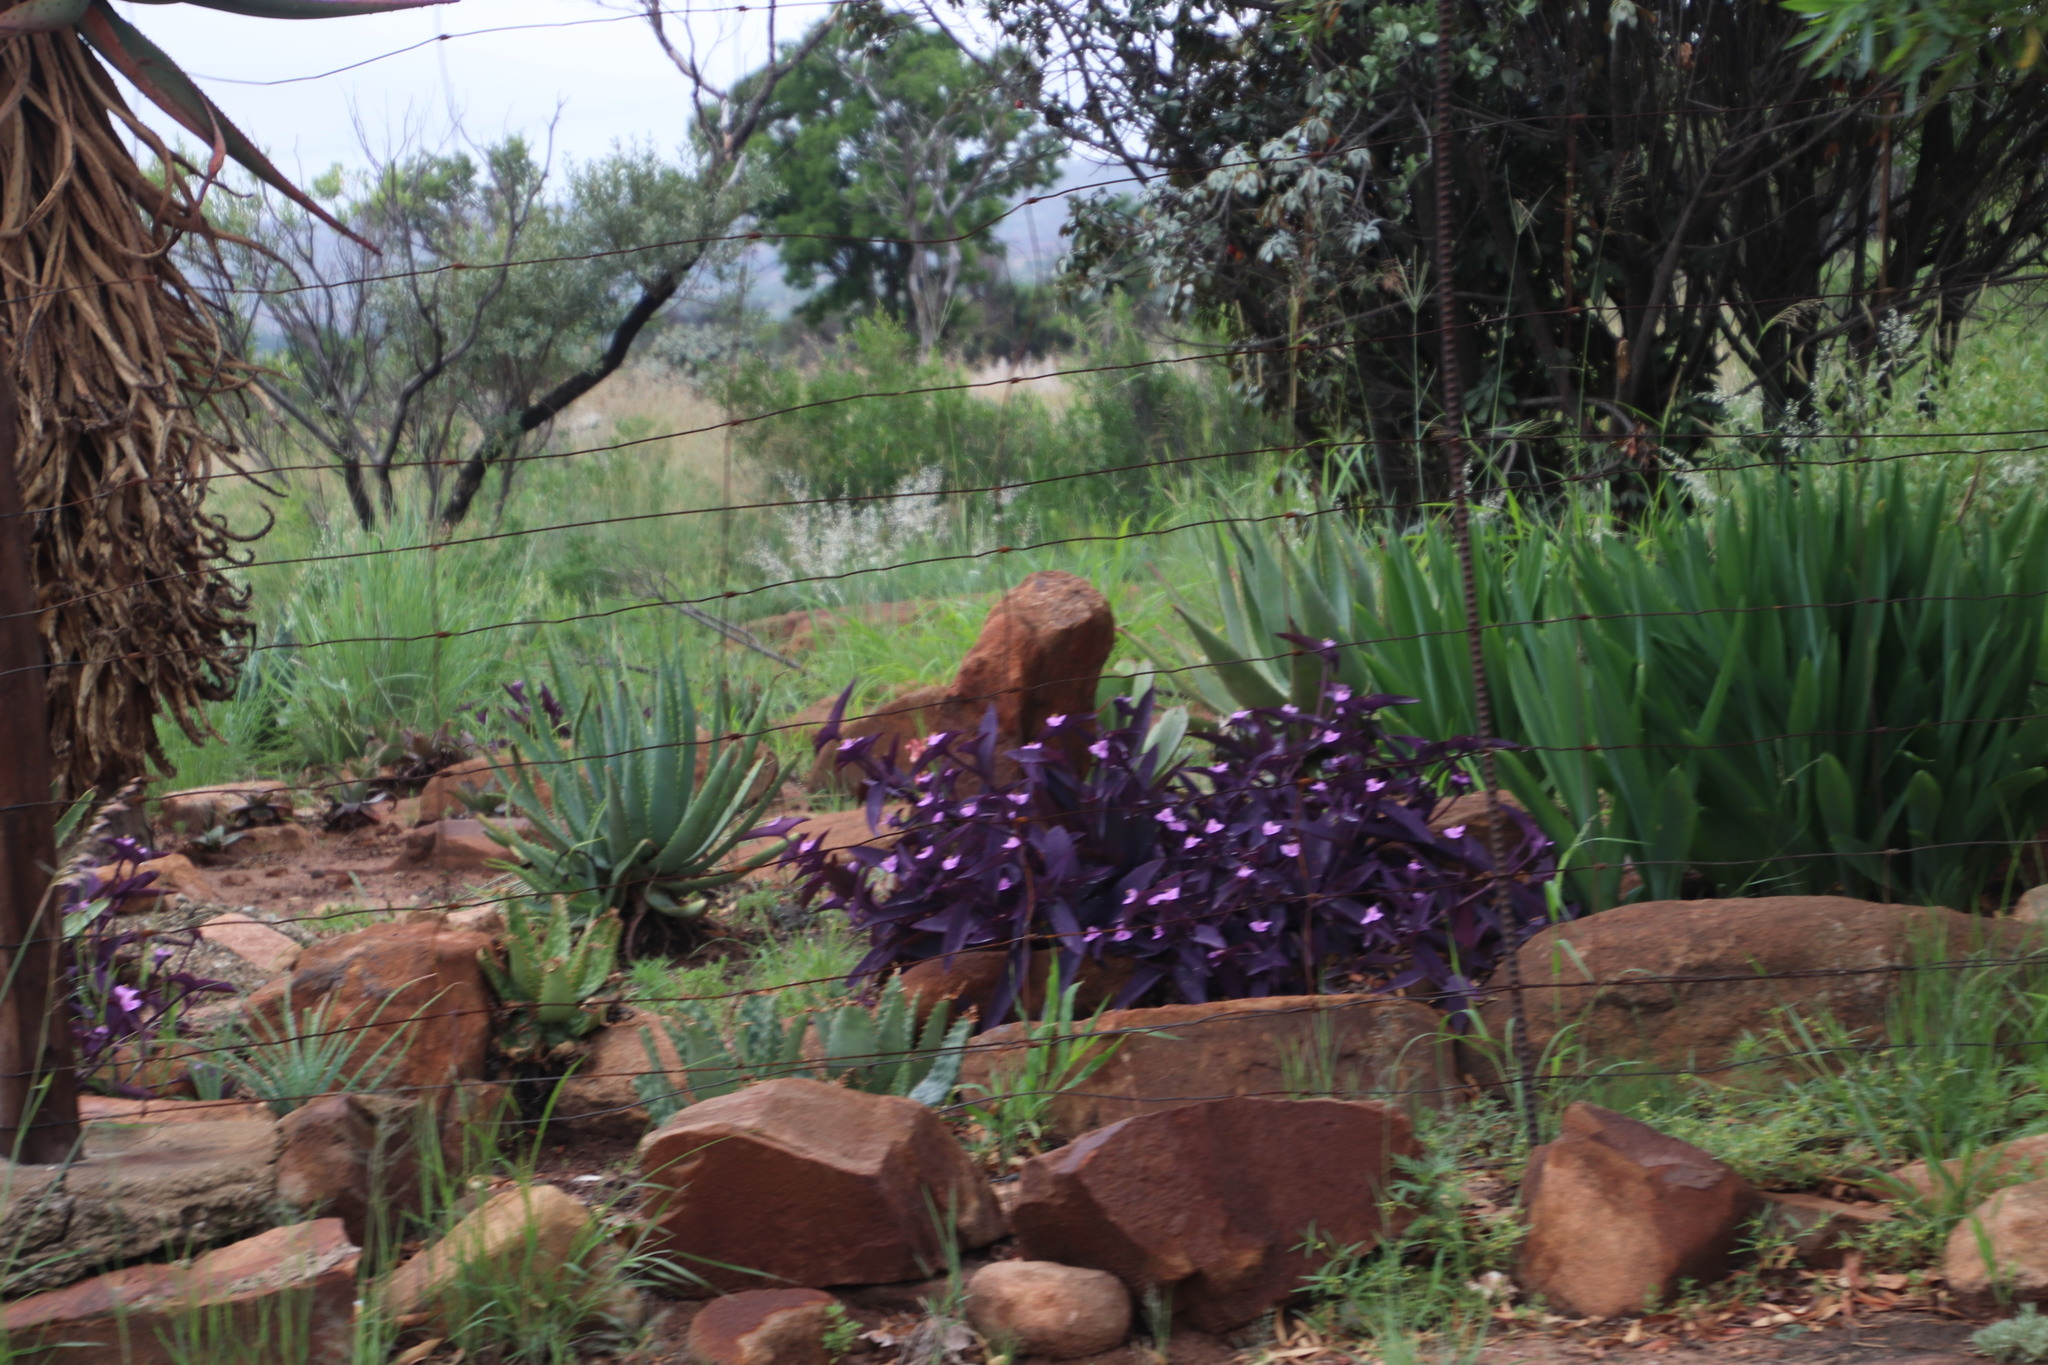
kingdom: Plantae
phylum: Tracheophyta
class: Liliopsida
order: Commelinales
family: Commelinaceae
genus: Tradescantia
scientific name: Tradescantia pallida
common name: Purpleheart
